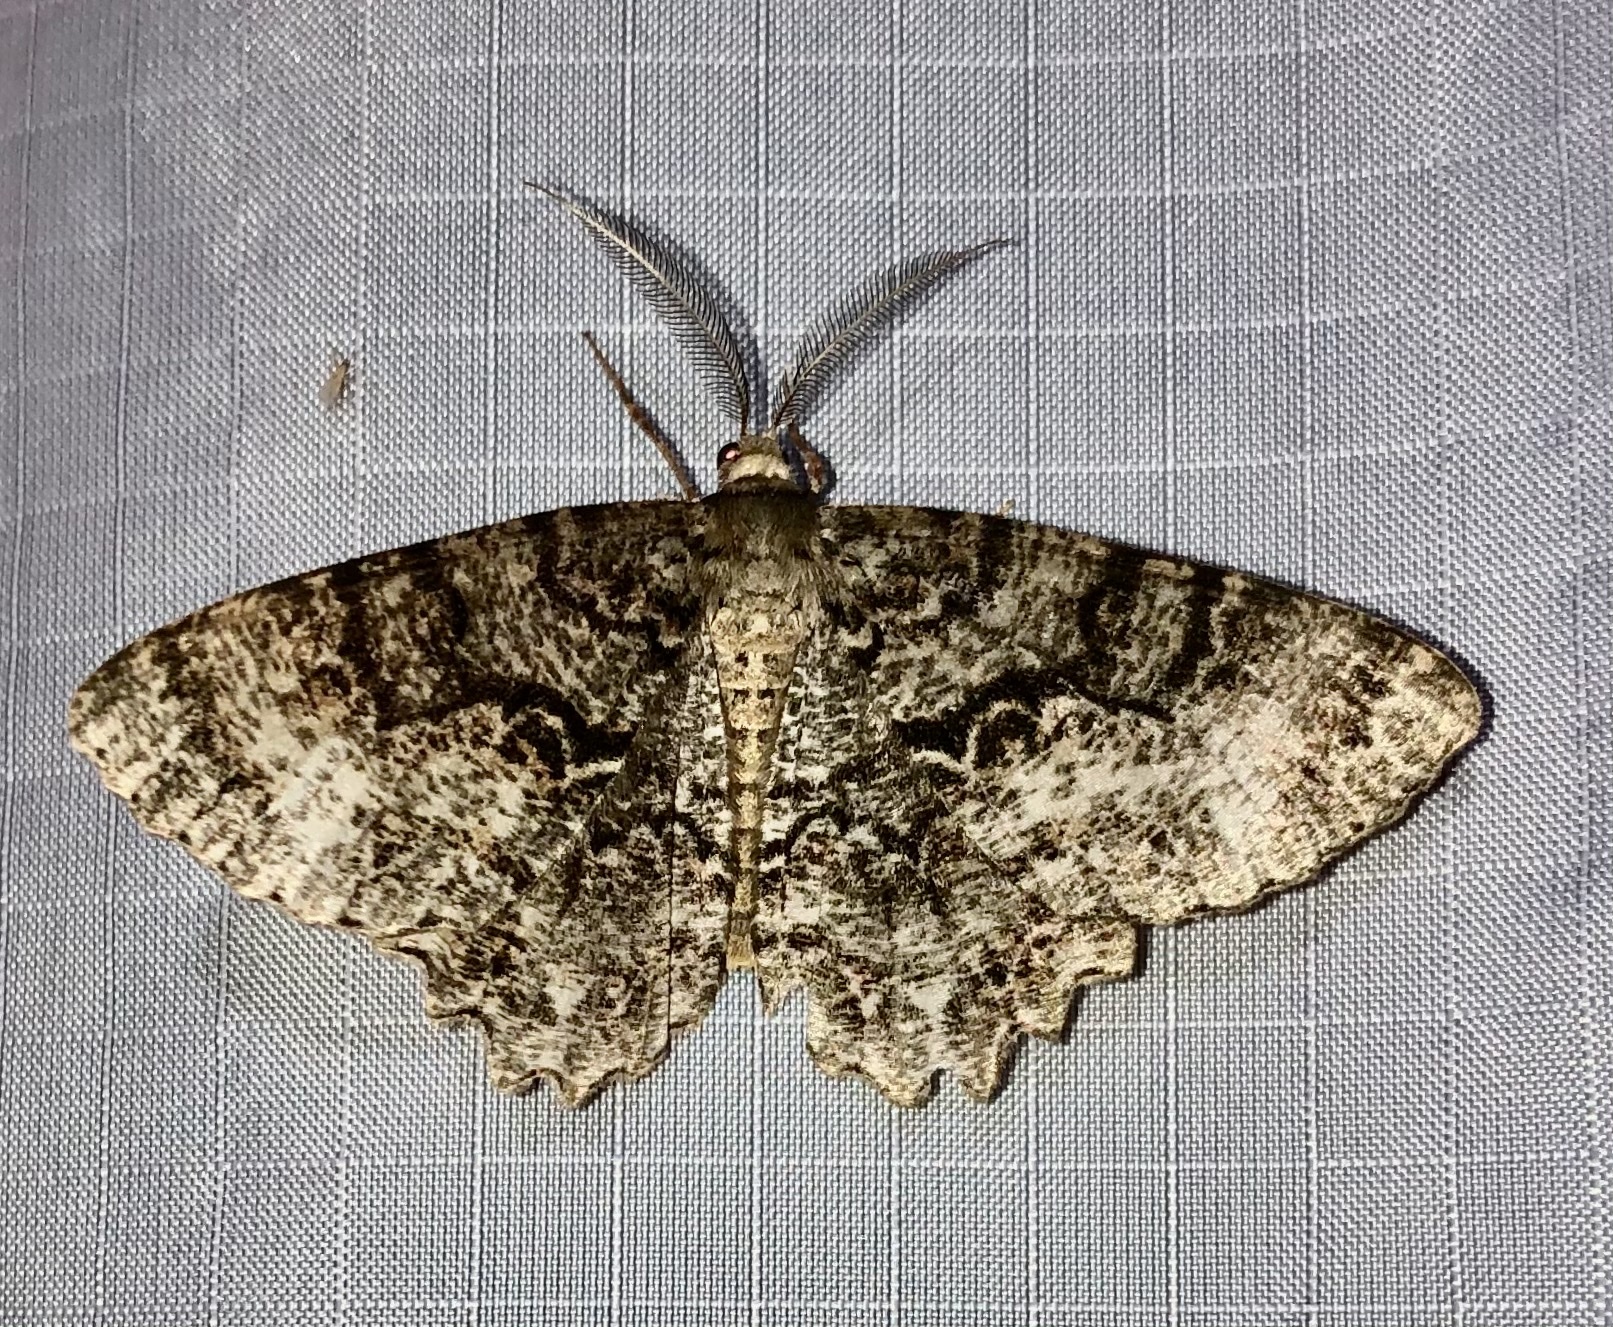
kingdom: Animalia
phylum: Arthropoda
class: Insecta
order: Lepidoptera
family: Geometridae
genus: Epimecis
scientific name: Epimecis hortaria
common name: Tulip-tree beauty
